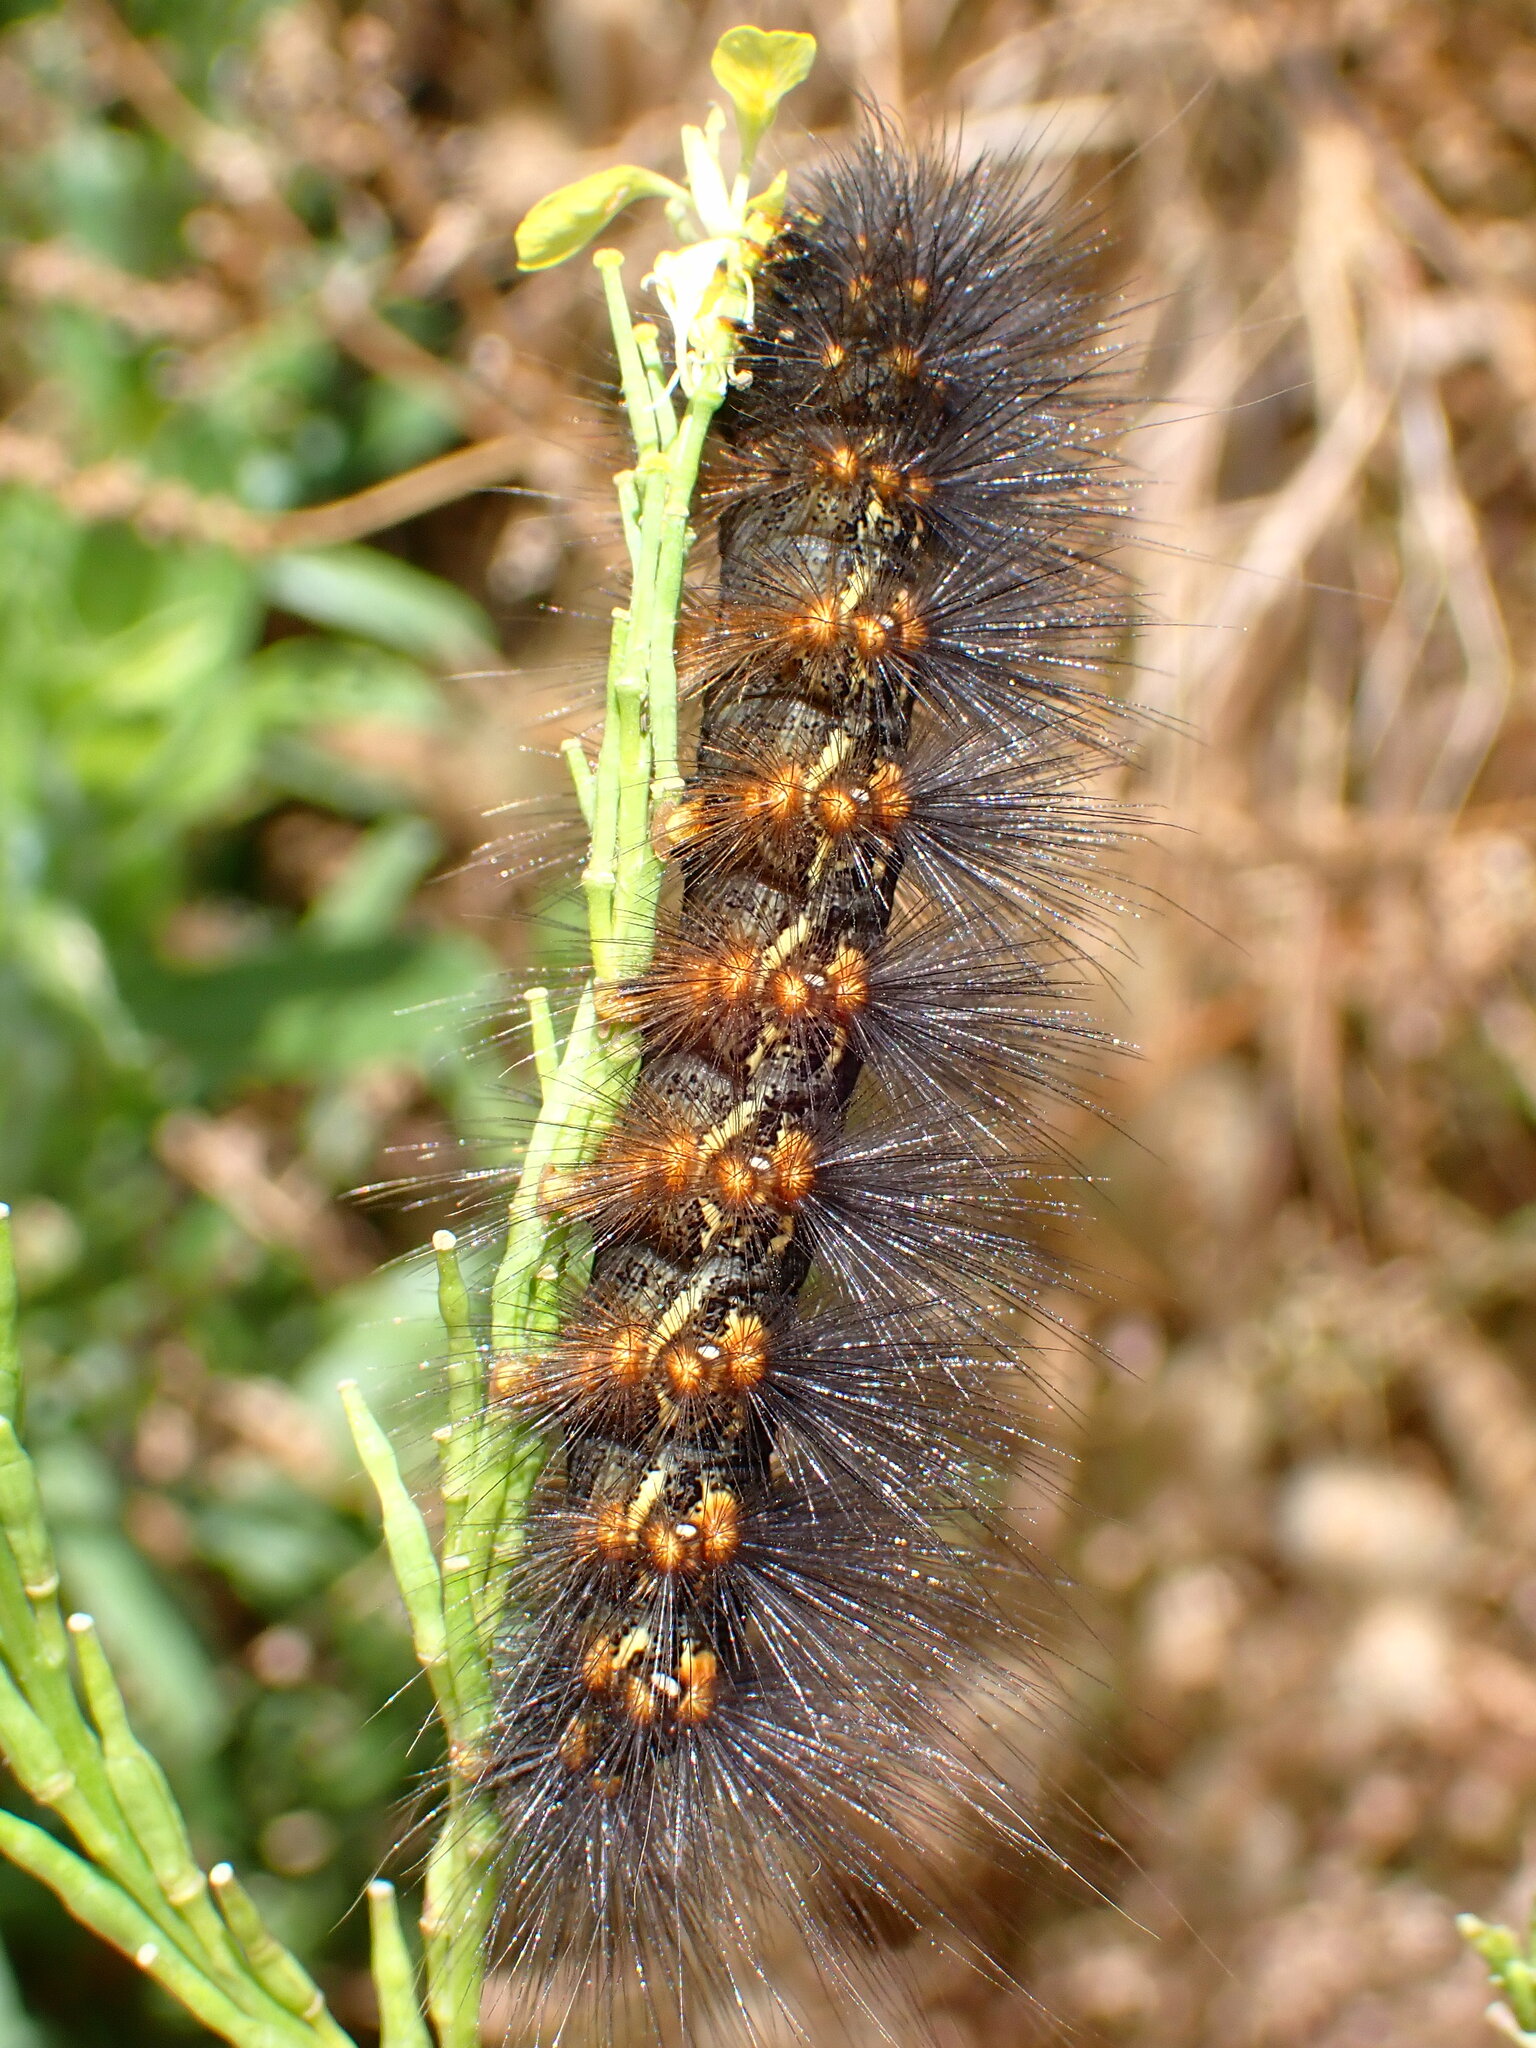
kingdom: Animalia
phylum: Arthropoda
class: Insecta
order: Lepidoptera
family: Erebidae
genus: Estigmene
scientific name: Estigmene acrea
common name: Salt marsh moth
